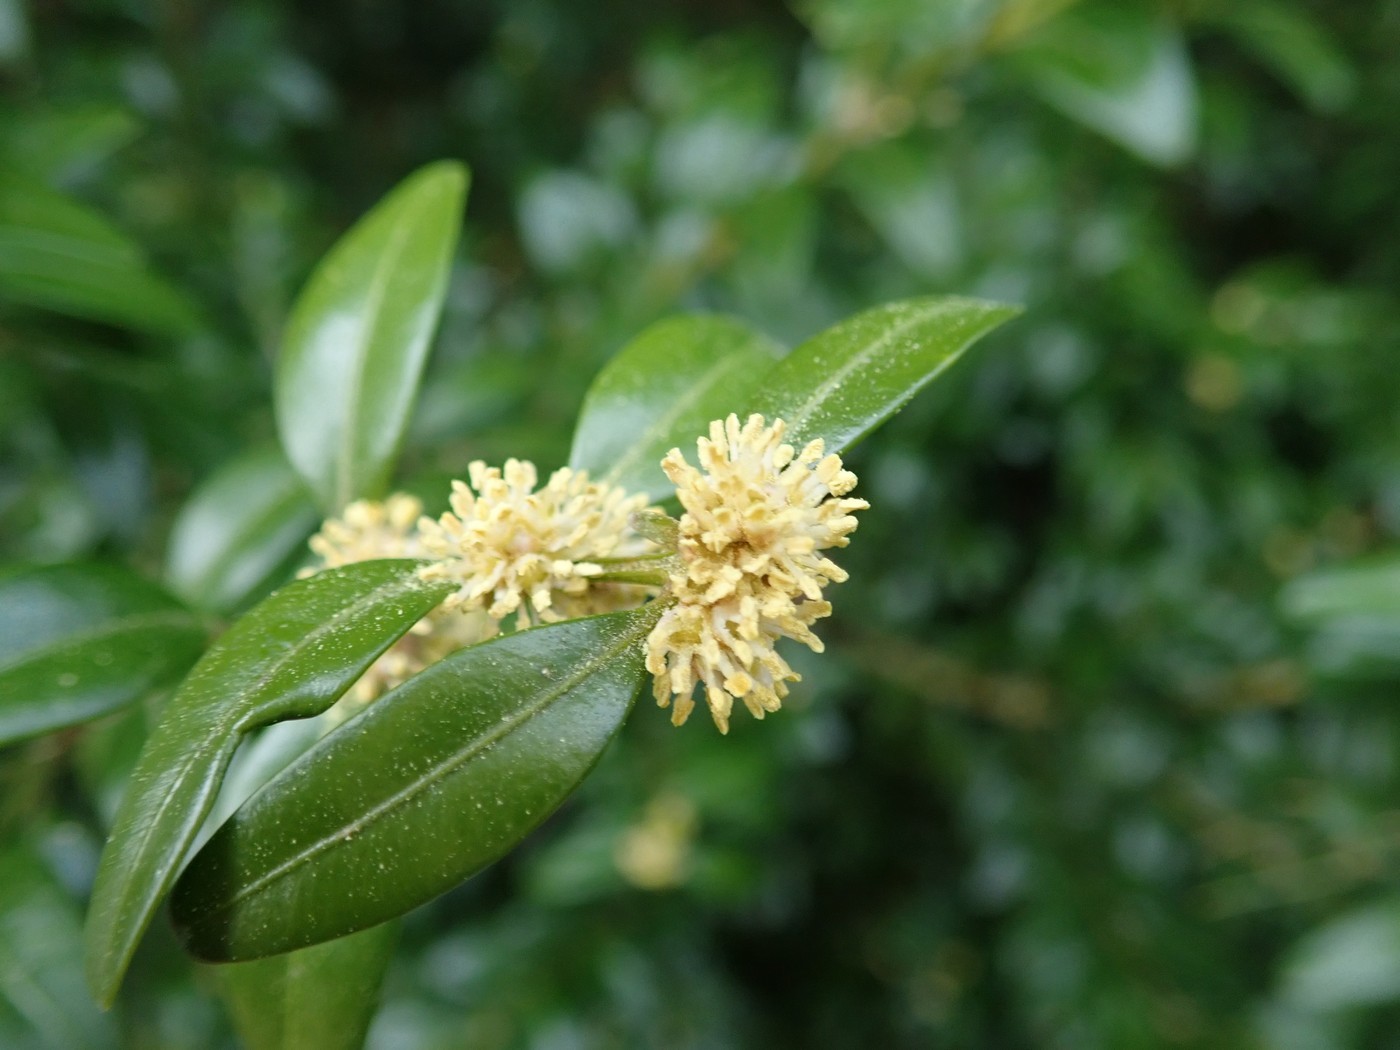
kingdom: Plantae
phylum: Tracheophyta
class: Magnoliopsida
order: Buxales
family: Buxaceae
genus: Buxus
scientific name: Buxus sempervirens
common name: Box
